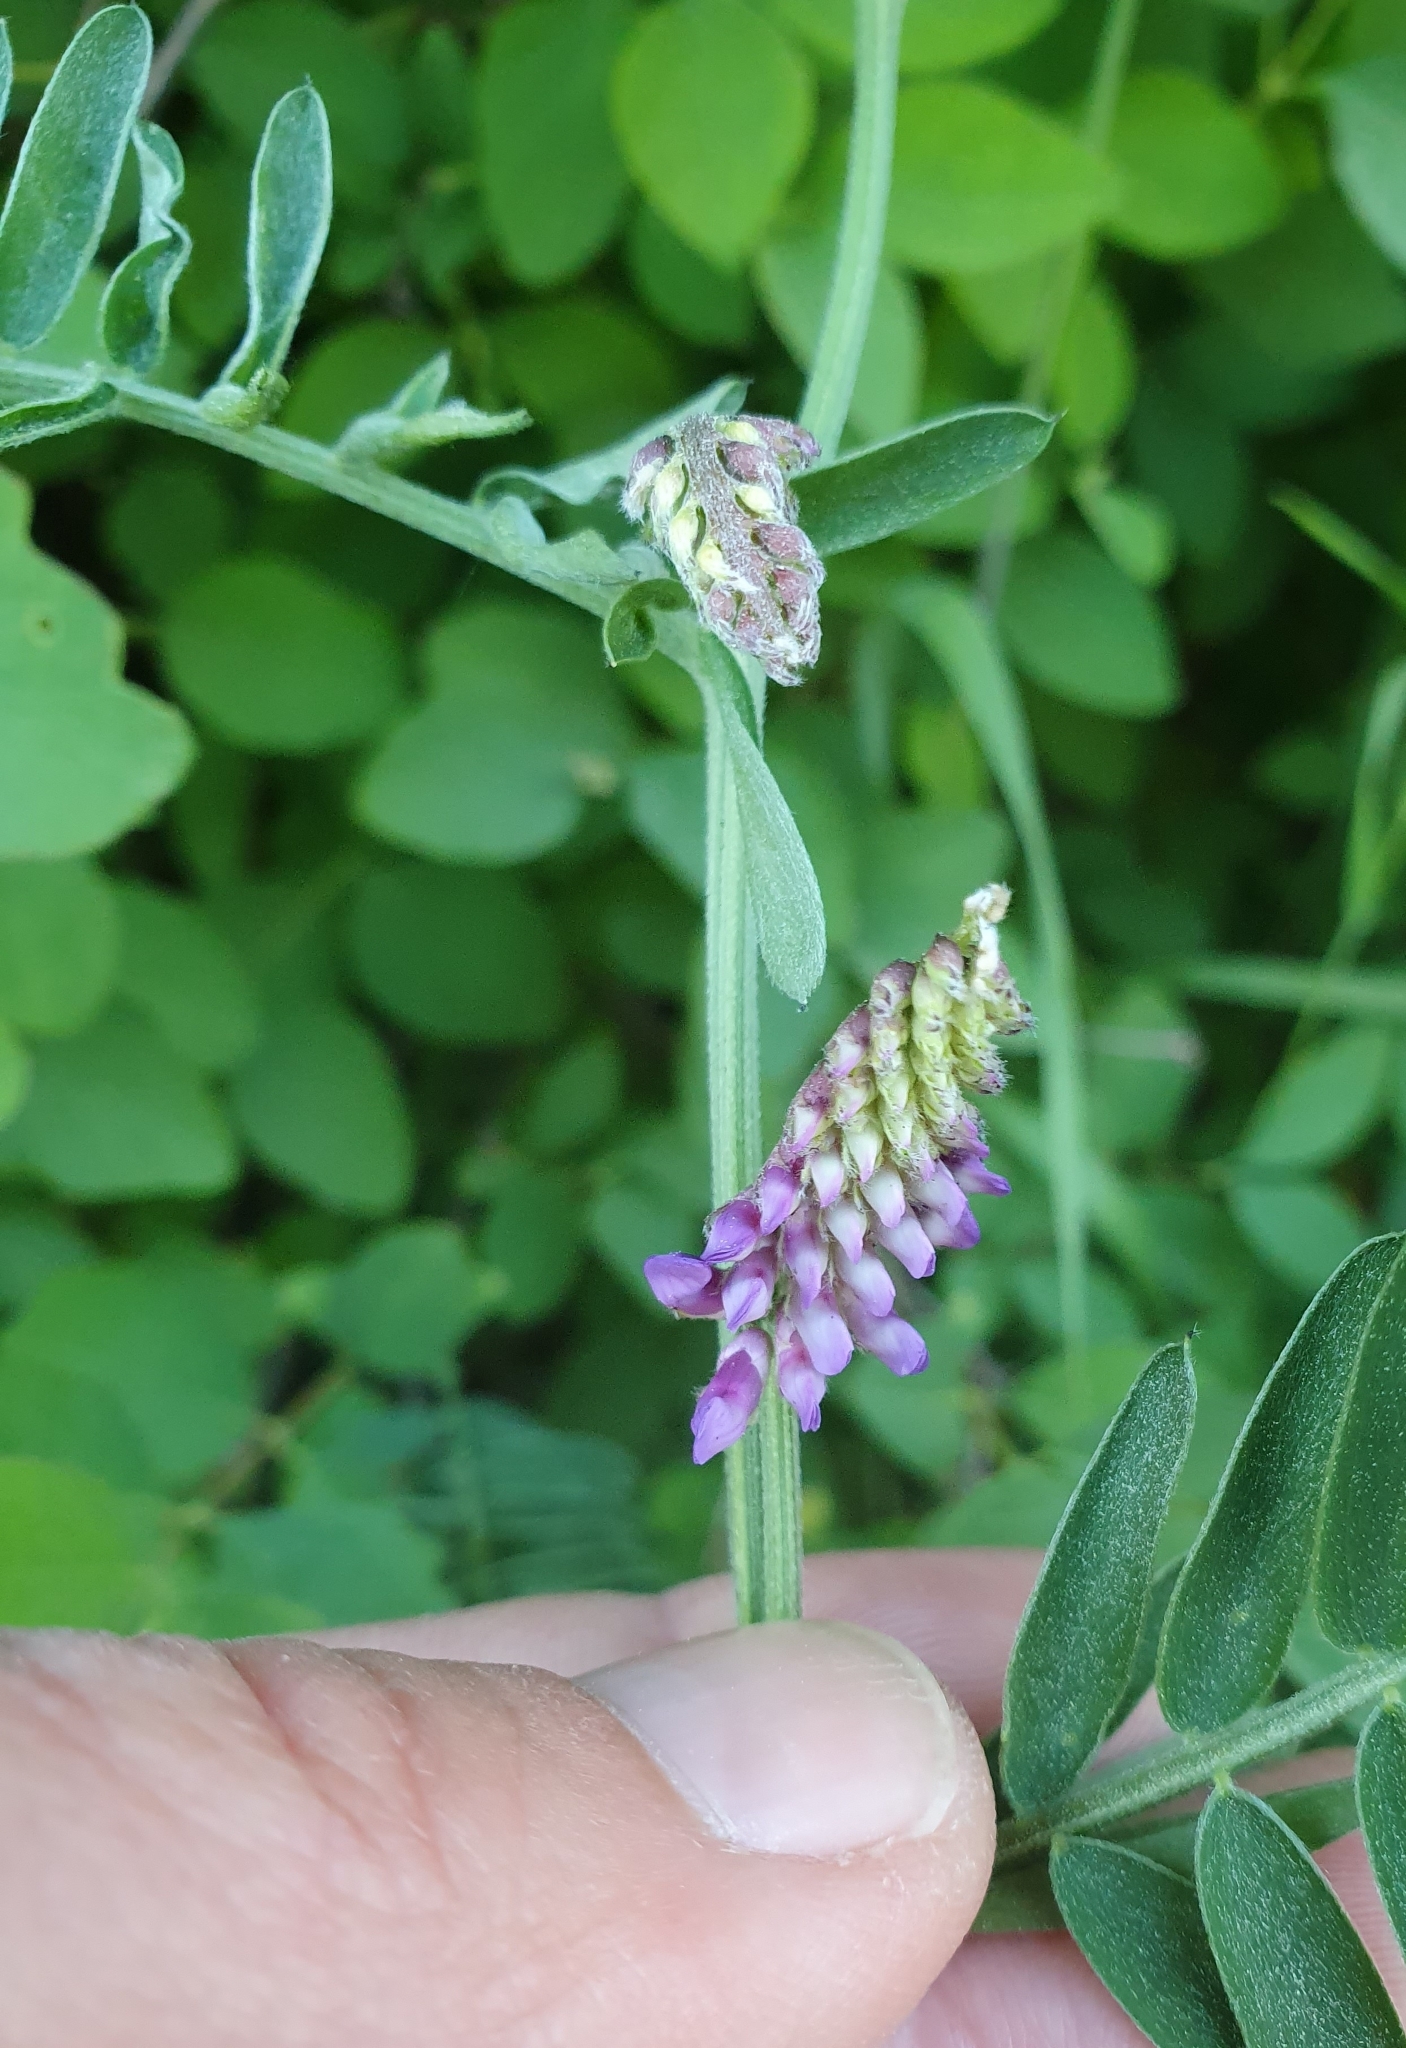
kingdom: Plantae
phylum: Tracheophyta
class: Magnoliopsida
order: Fabales
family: Fabaceae
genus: Vicia
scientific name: Vicia cracca
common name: Bird vetch
